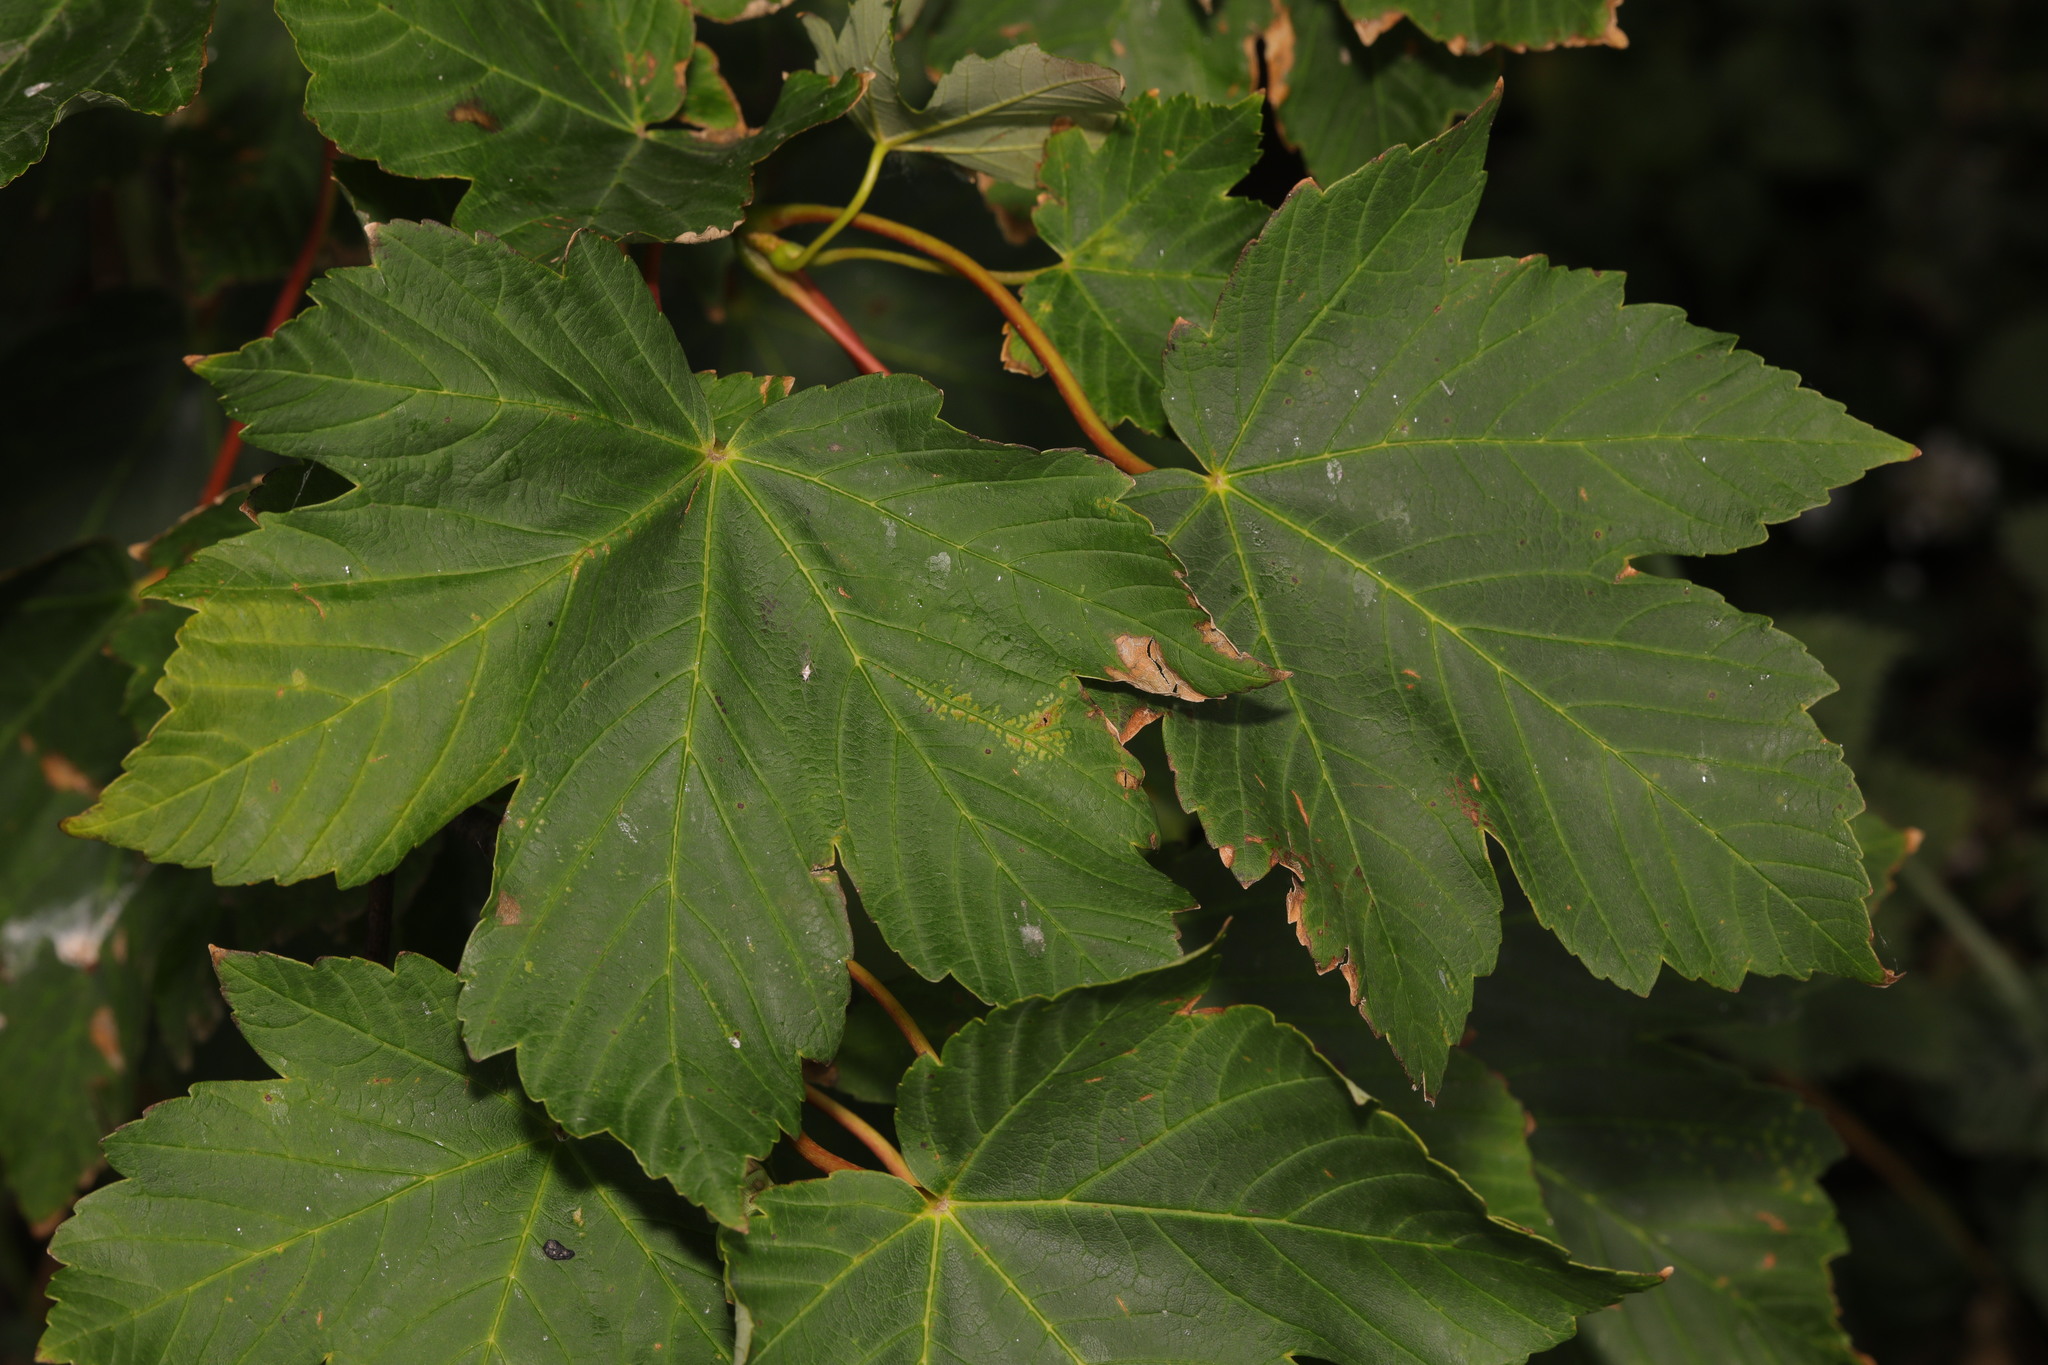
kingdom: Plantae
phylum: Tracheophyta
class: Magnoliopsida
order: Sapindales
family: Sapindaceae
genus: Acer
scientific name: Acer pseudoplatanus
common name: Sycamore
